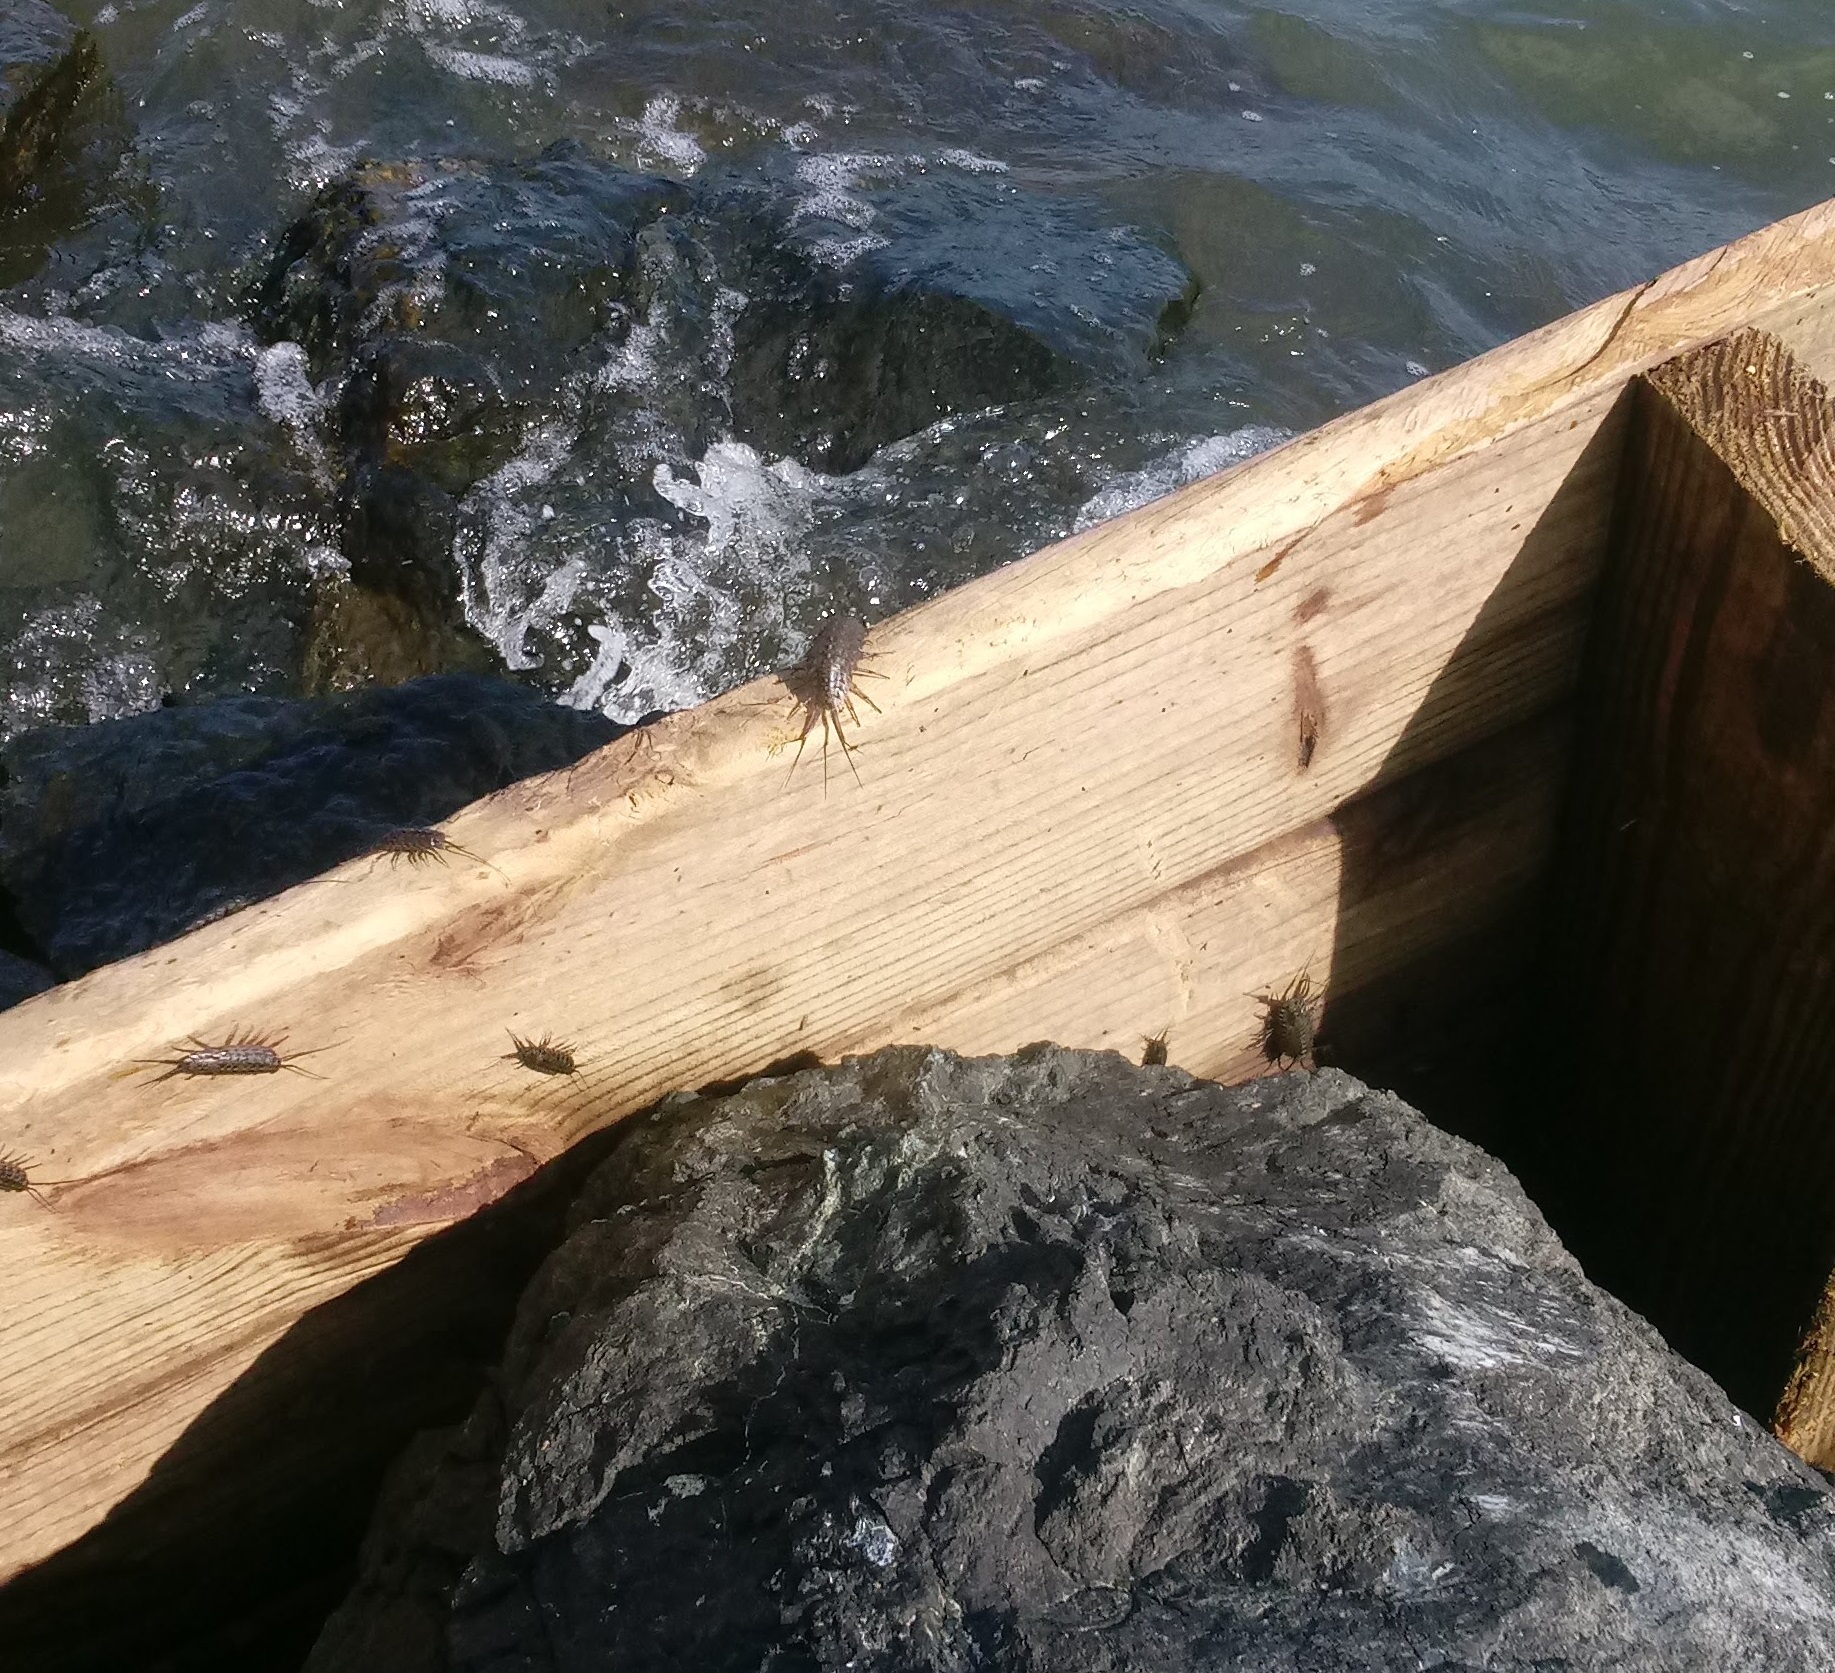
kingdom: Animalia
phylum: Arthropoda
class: Malacostraca
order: Isopoda
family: Ligiidae
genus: Ligia
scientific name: Ligia exotica
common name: Wharf roach
